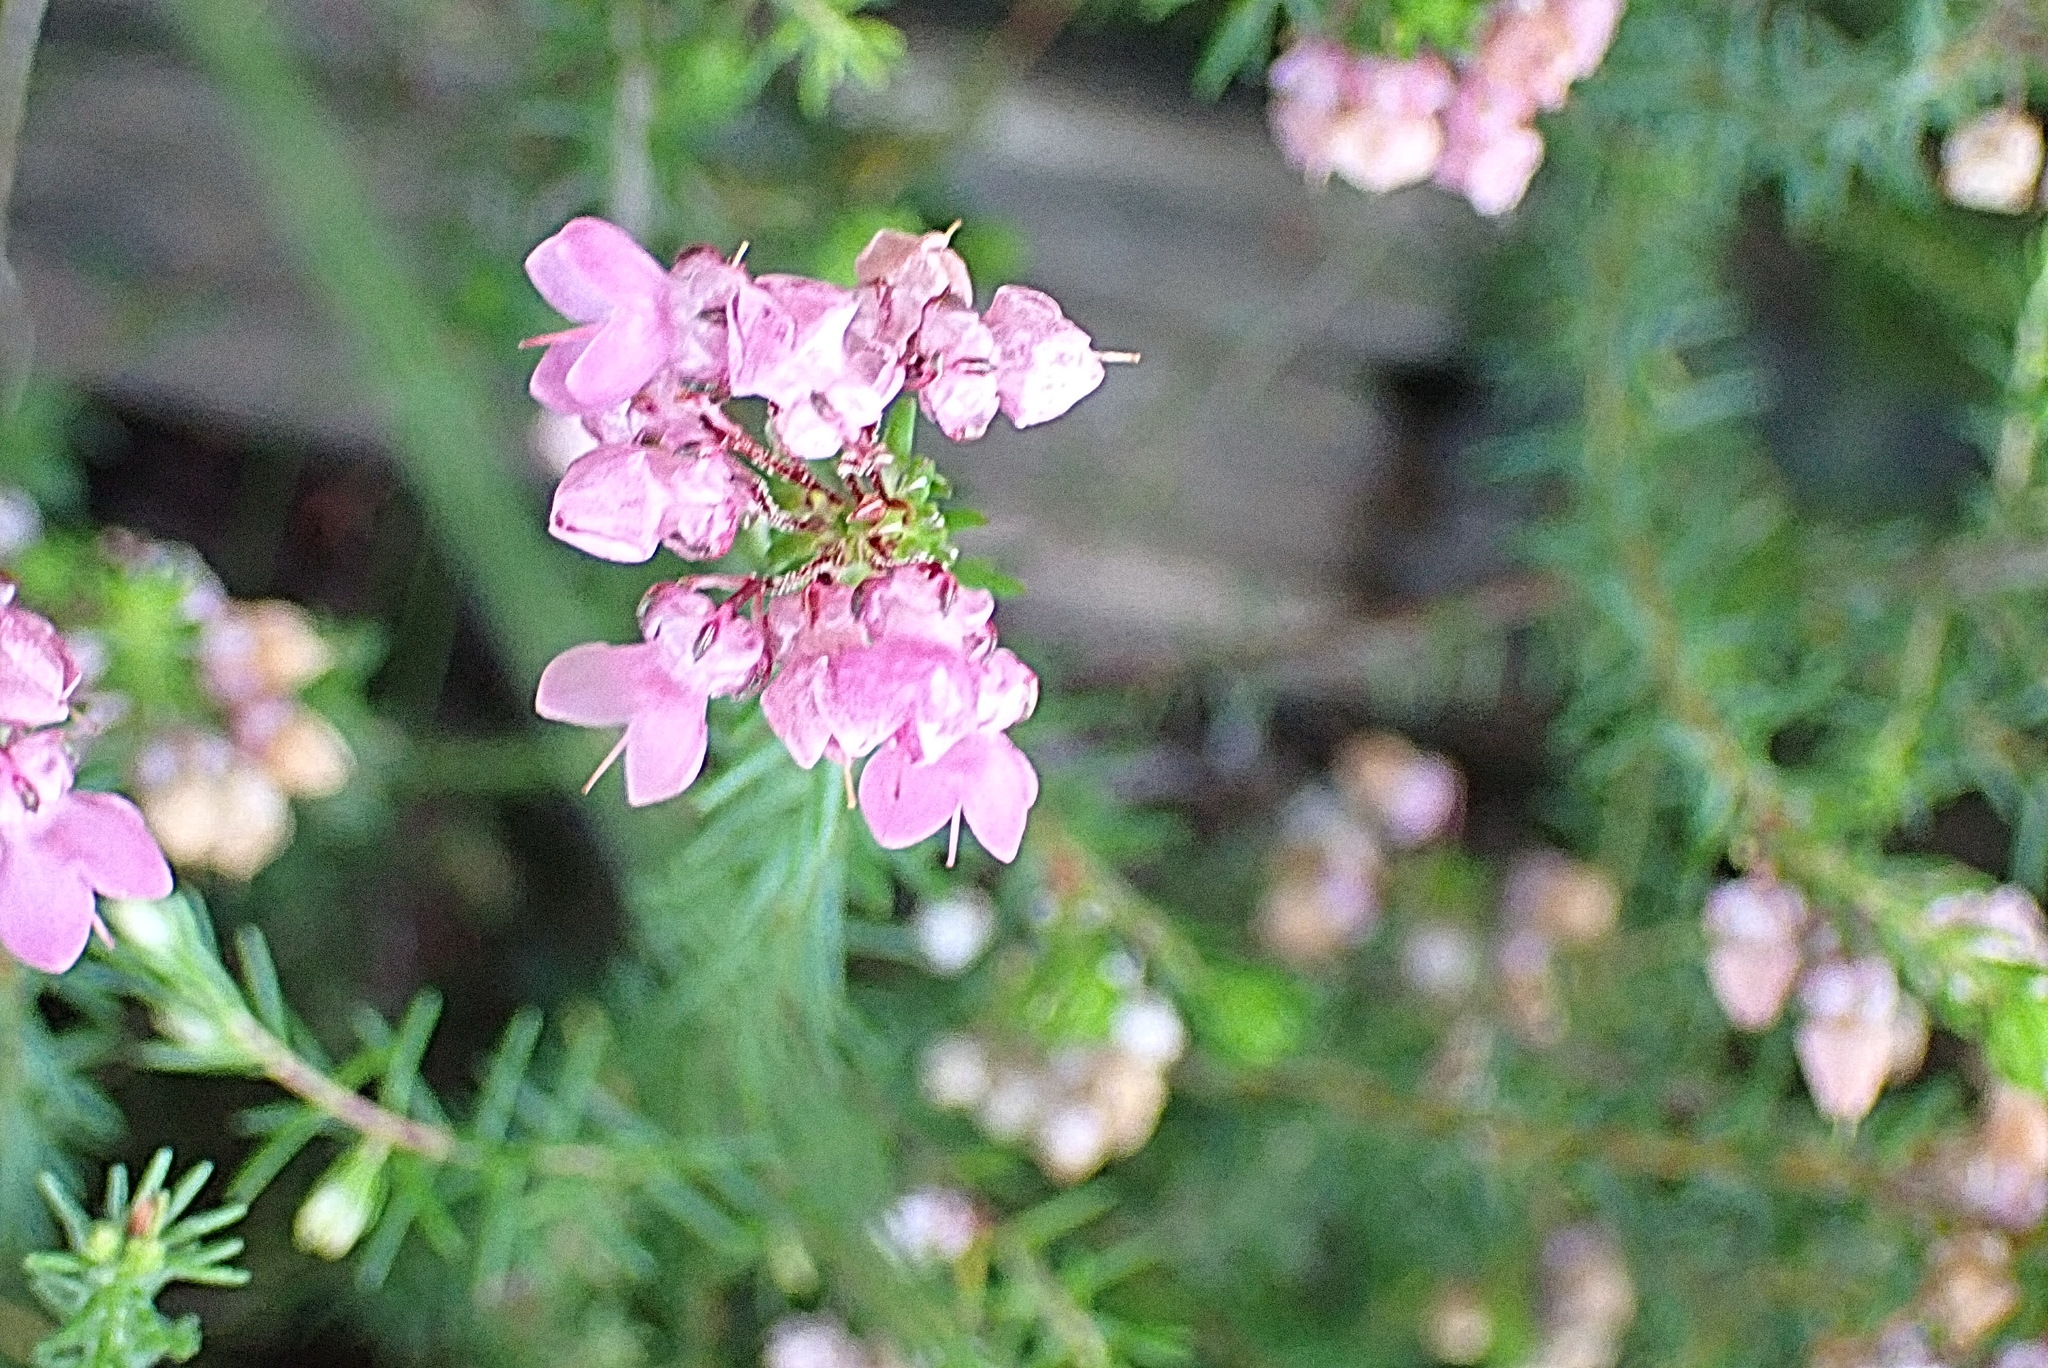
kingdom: Plantae
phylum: Tracheophyta
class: Magnoliopsida
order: Ericales
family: Ericaceae
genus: Erica
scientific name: Erica cubica
